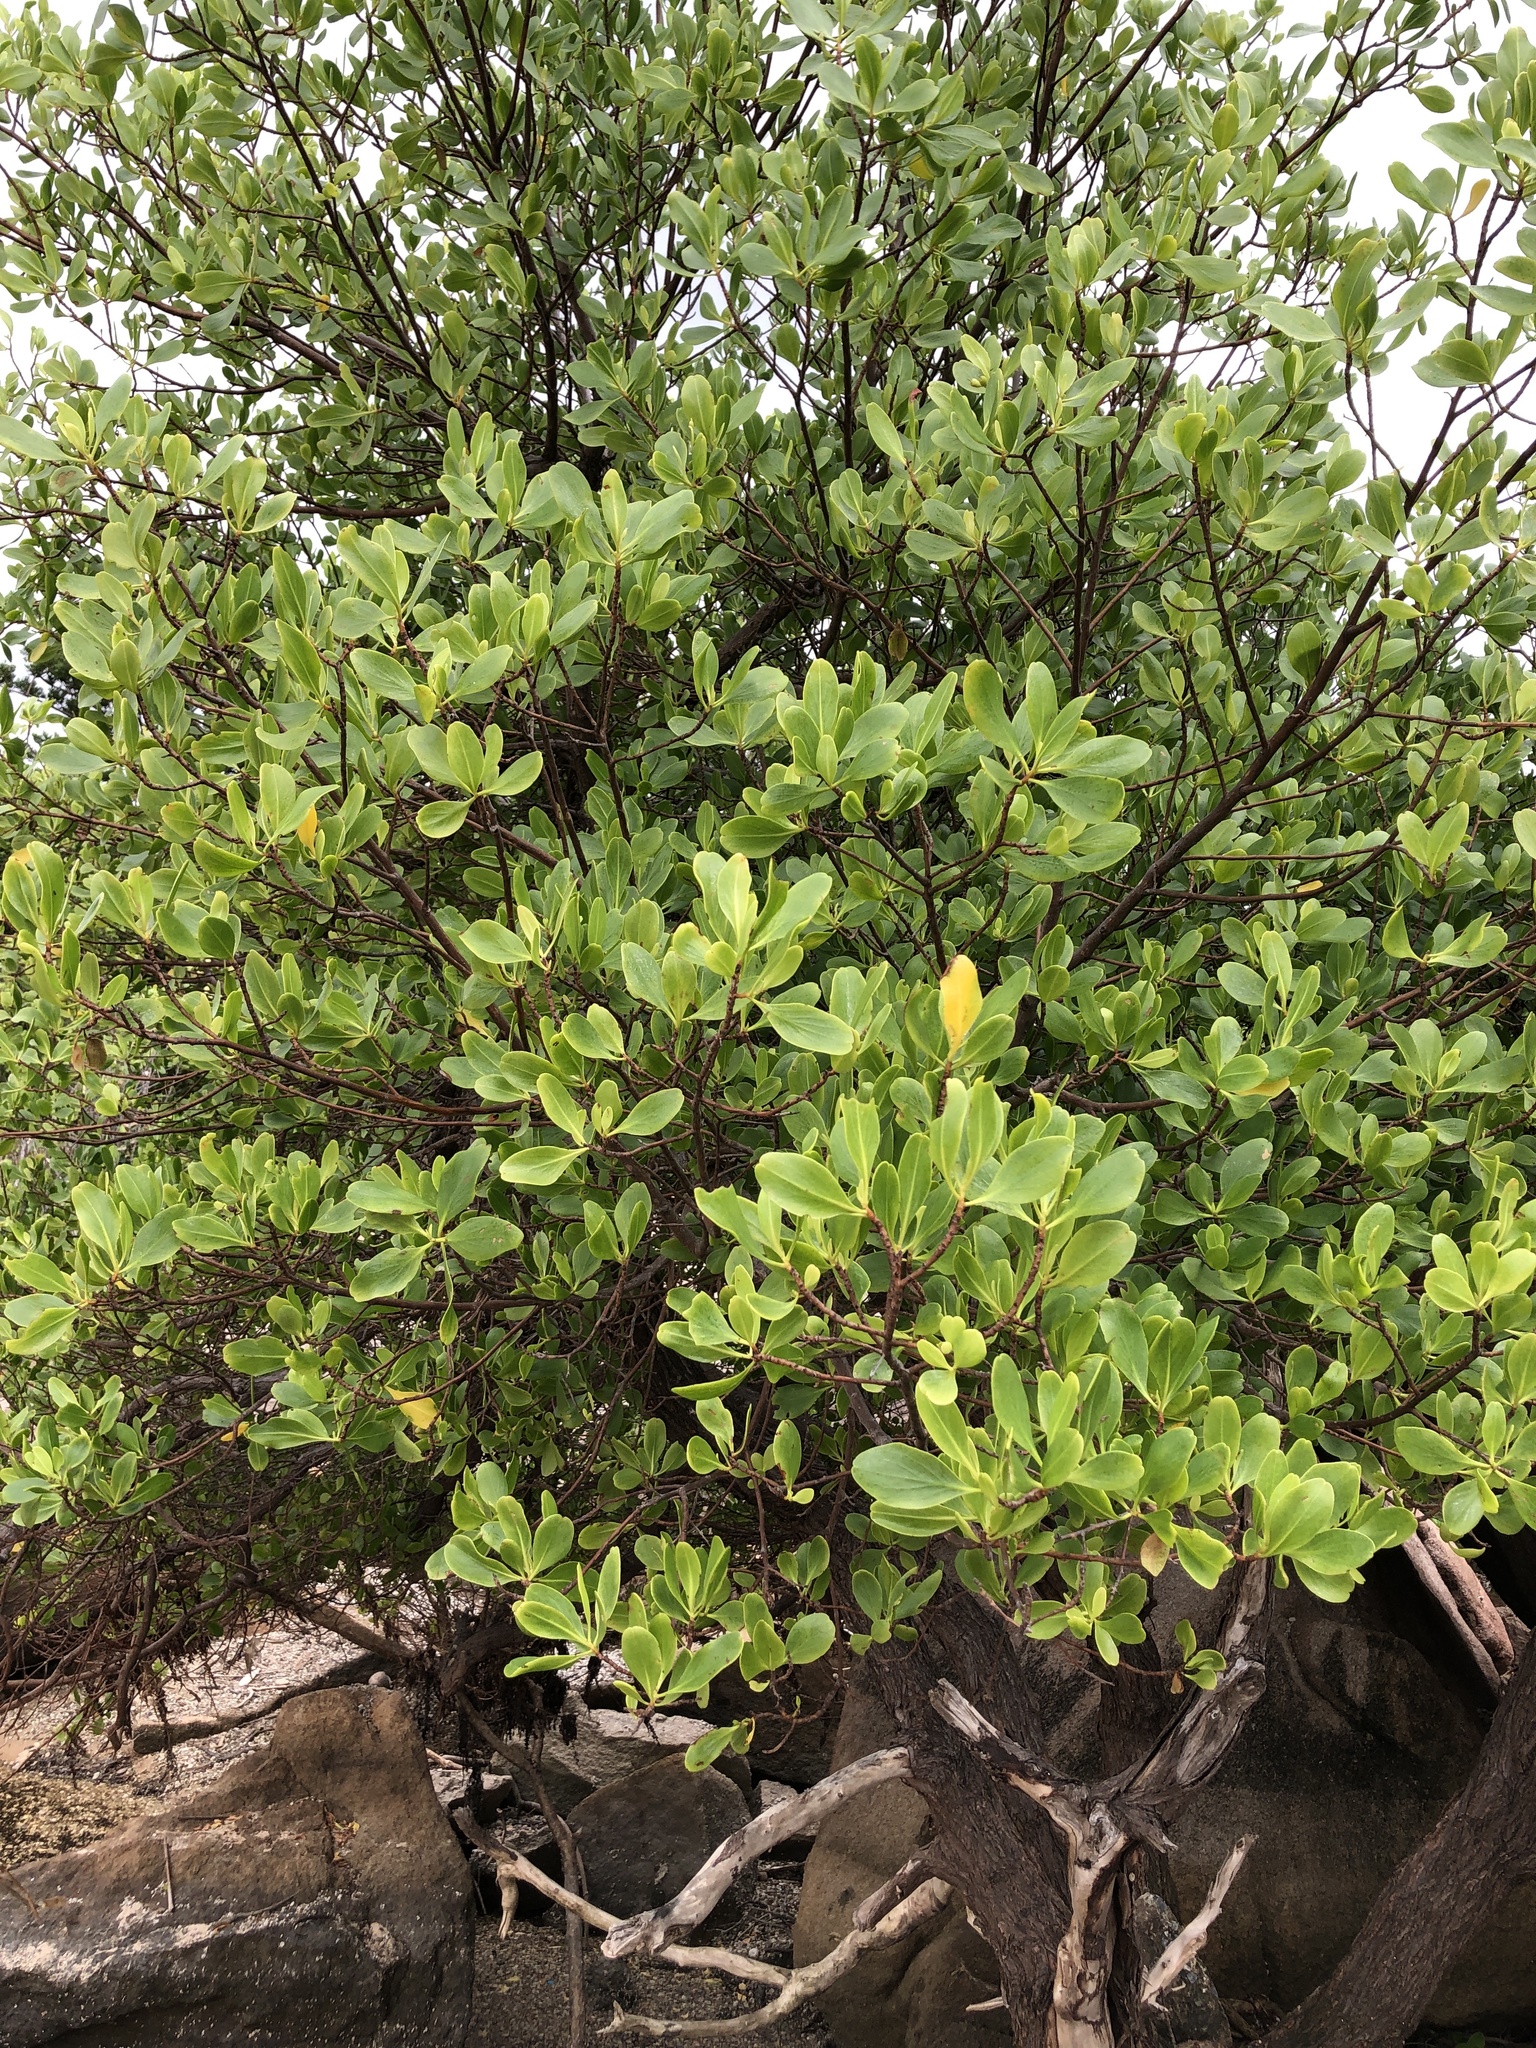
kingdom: Plantae
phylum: Tracheophyta
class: Magnoliopsida
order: Myrtales
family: Combretaceae
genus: Lumnitzera
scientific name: Lumnitzera racemosa
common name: White-flowered black mangrove
